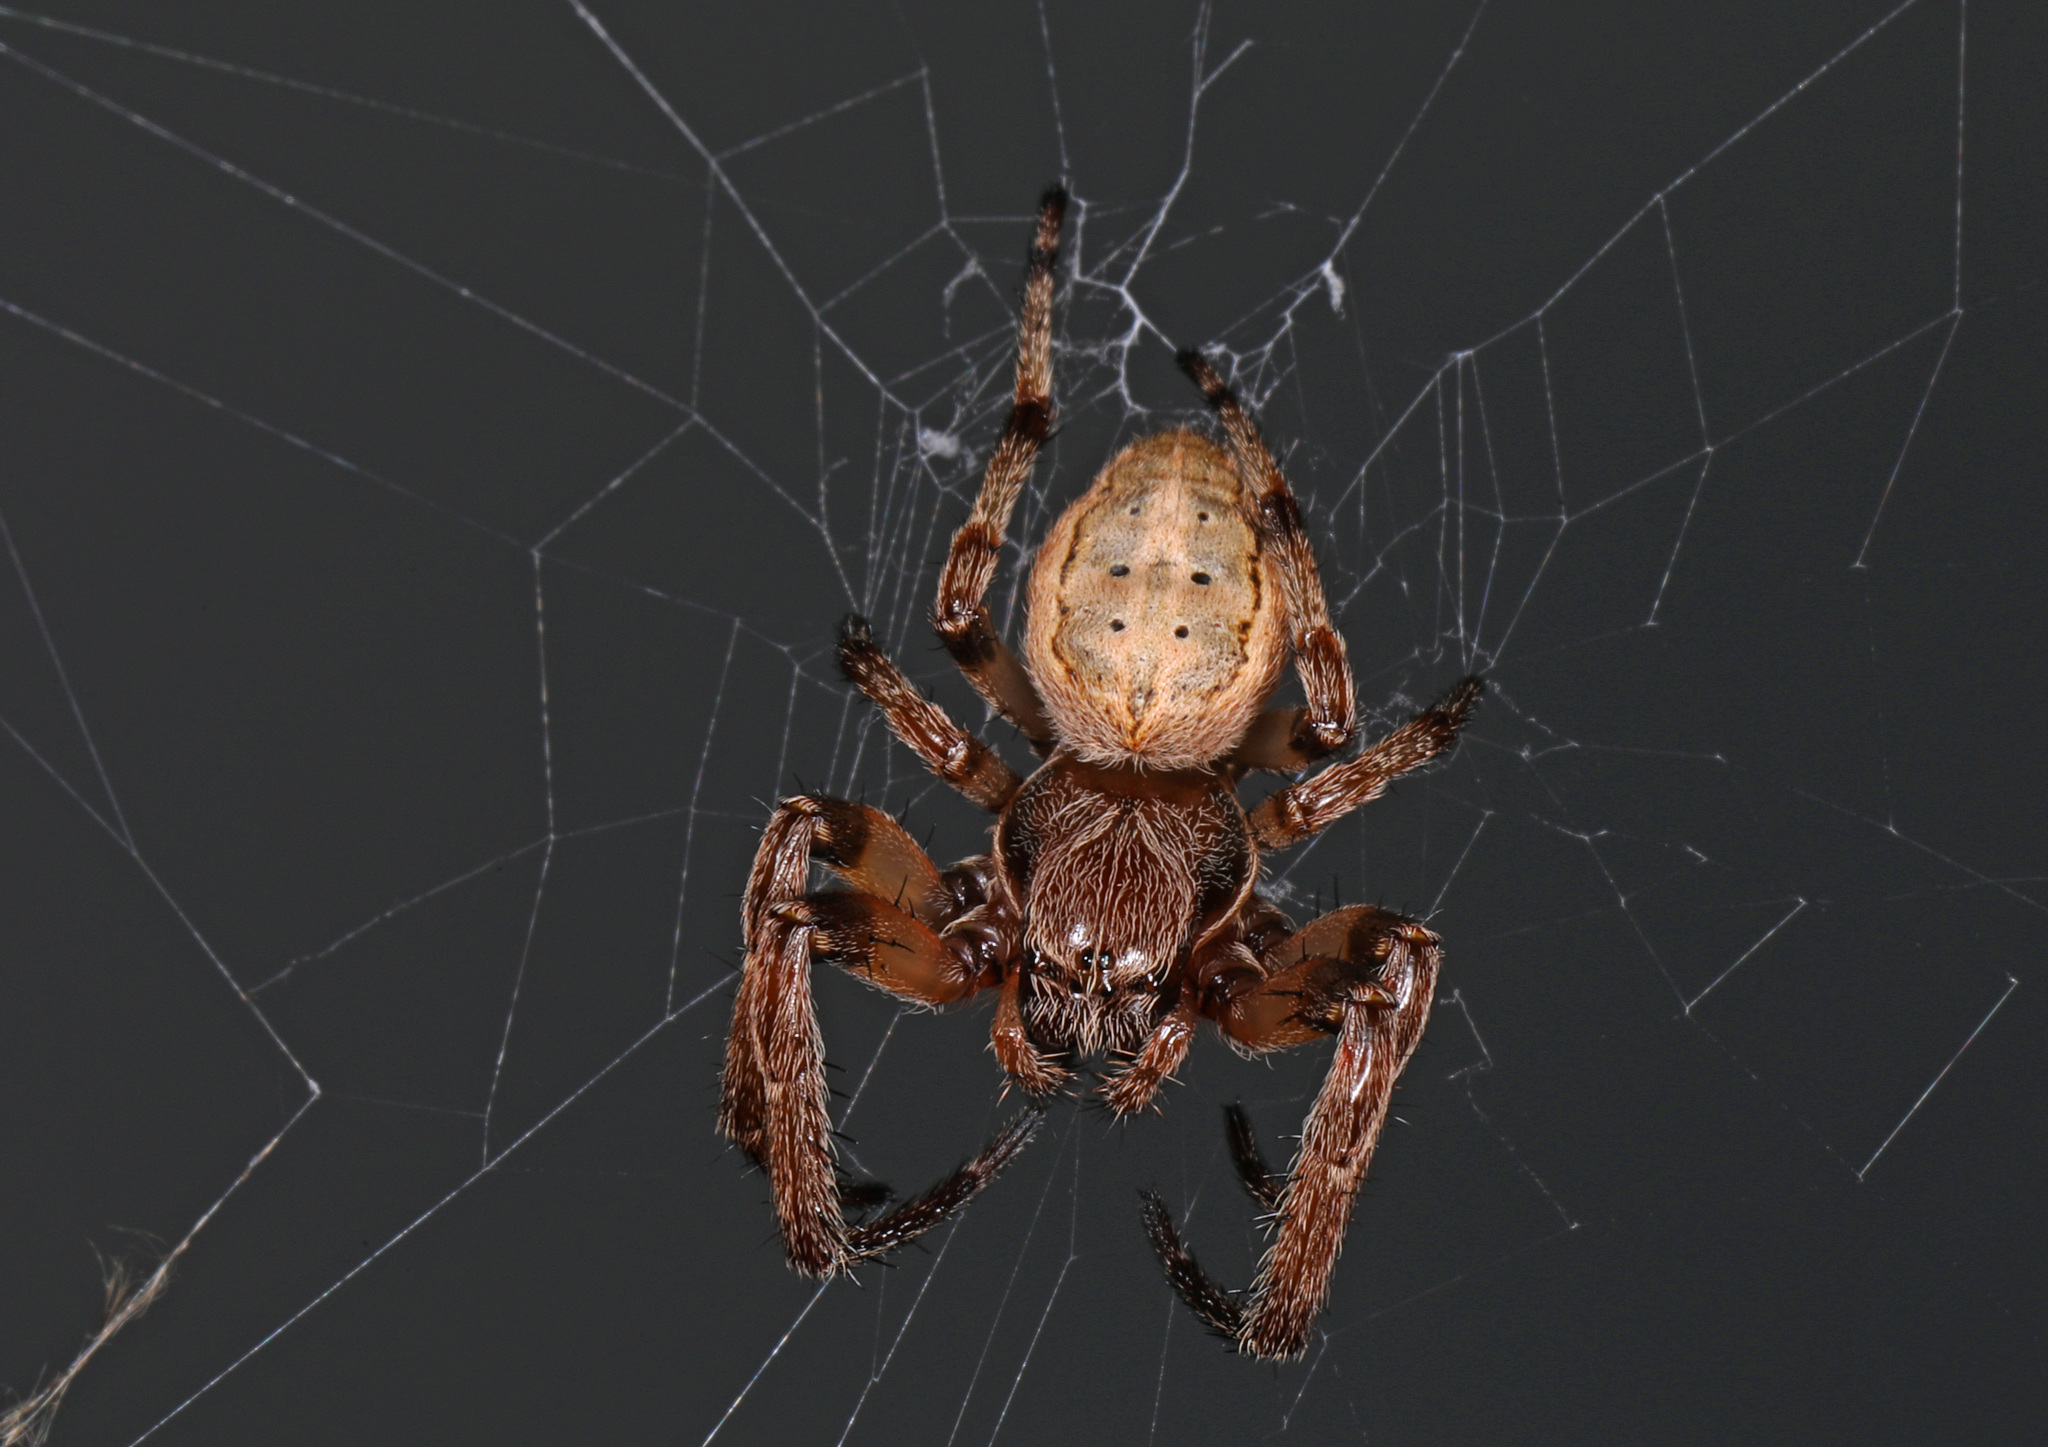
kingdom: Animalia
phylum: Arthropoda
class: Arachnida
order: Araneae
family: Araneidae
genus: Larinioides
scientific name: Larinioides cornutus
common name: Furrow orbweaver
